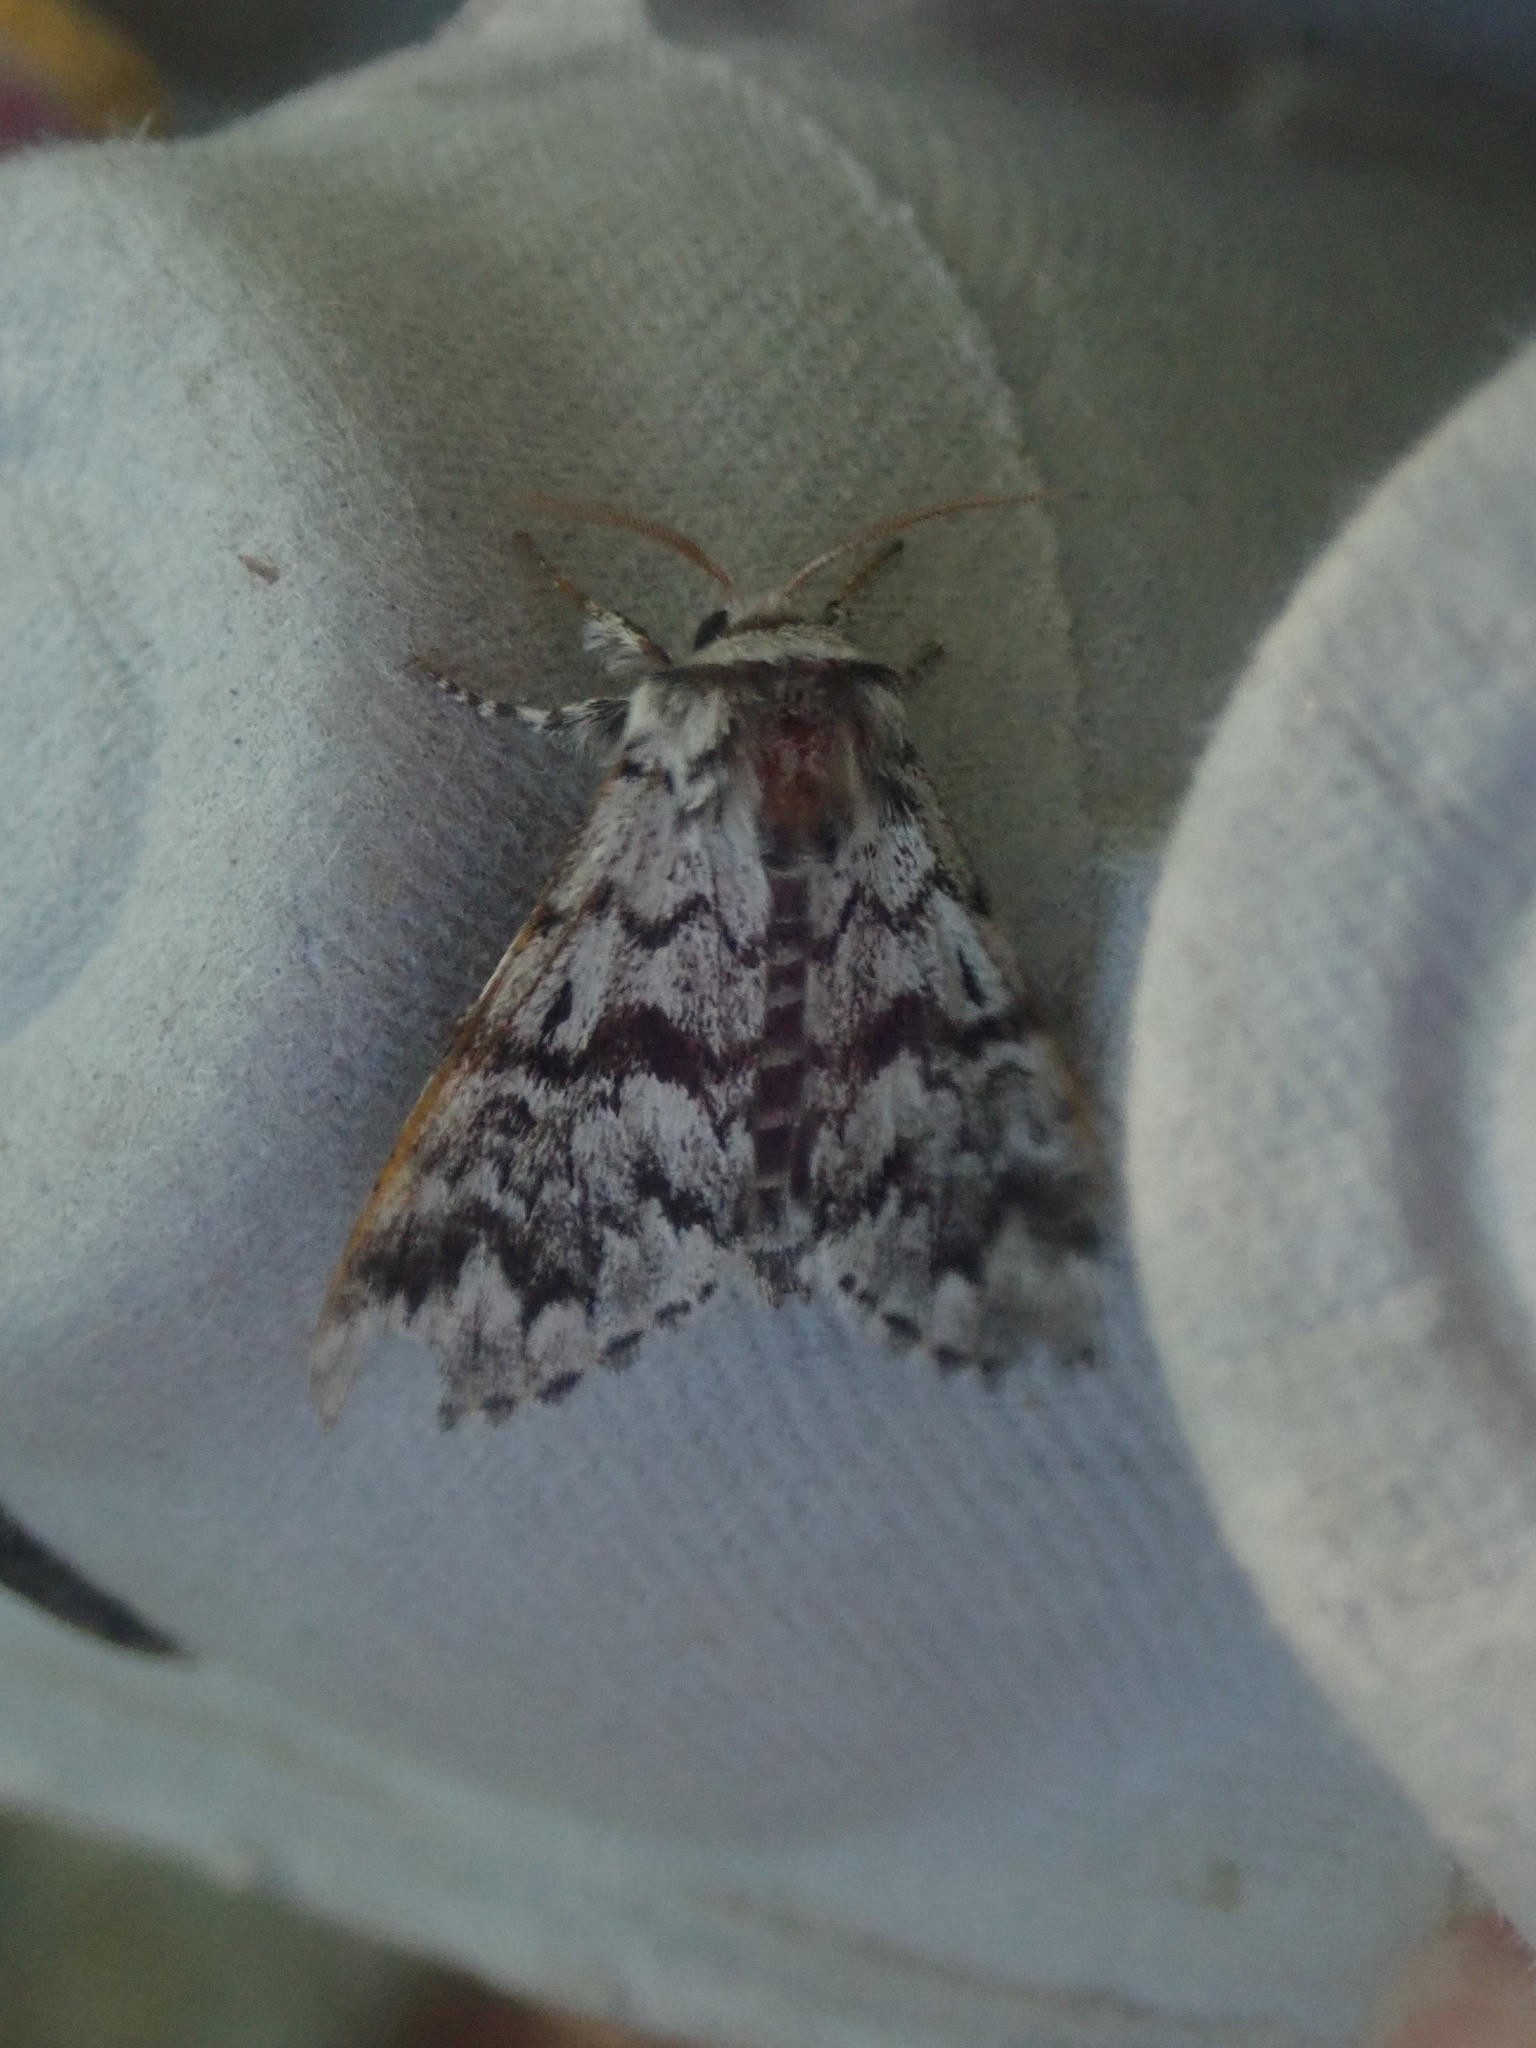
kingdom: Animalia
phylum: Arthropoda
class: Insecta
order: Lepidoptera
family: Noctuidae
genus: Panthea
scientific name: Panthea acronyctoides
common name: Black zigzag moth
